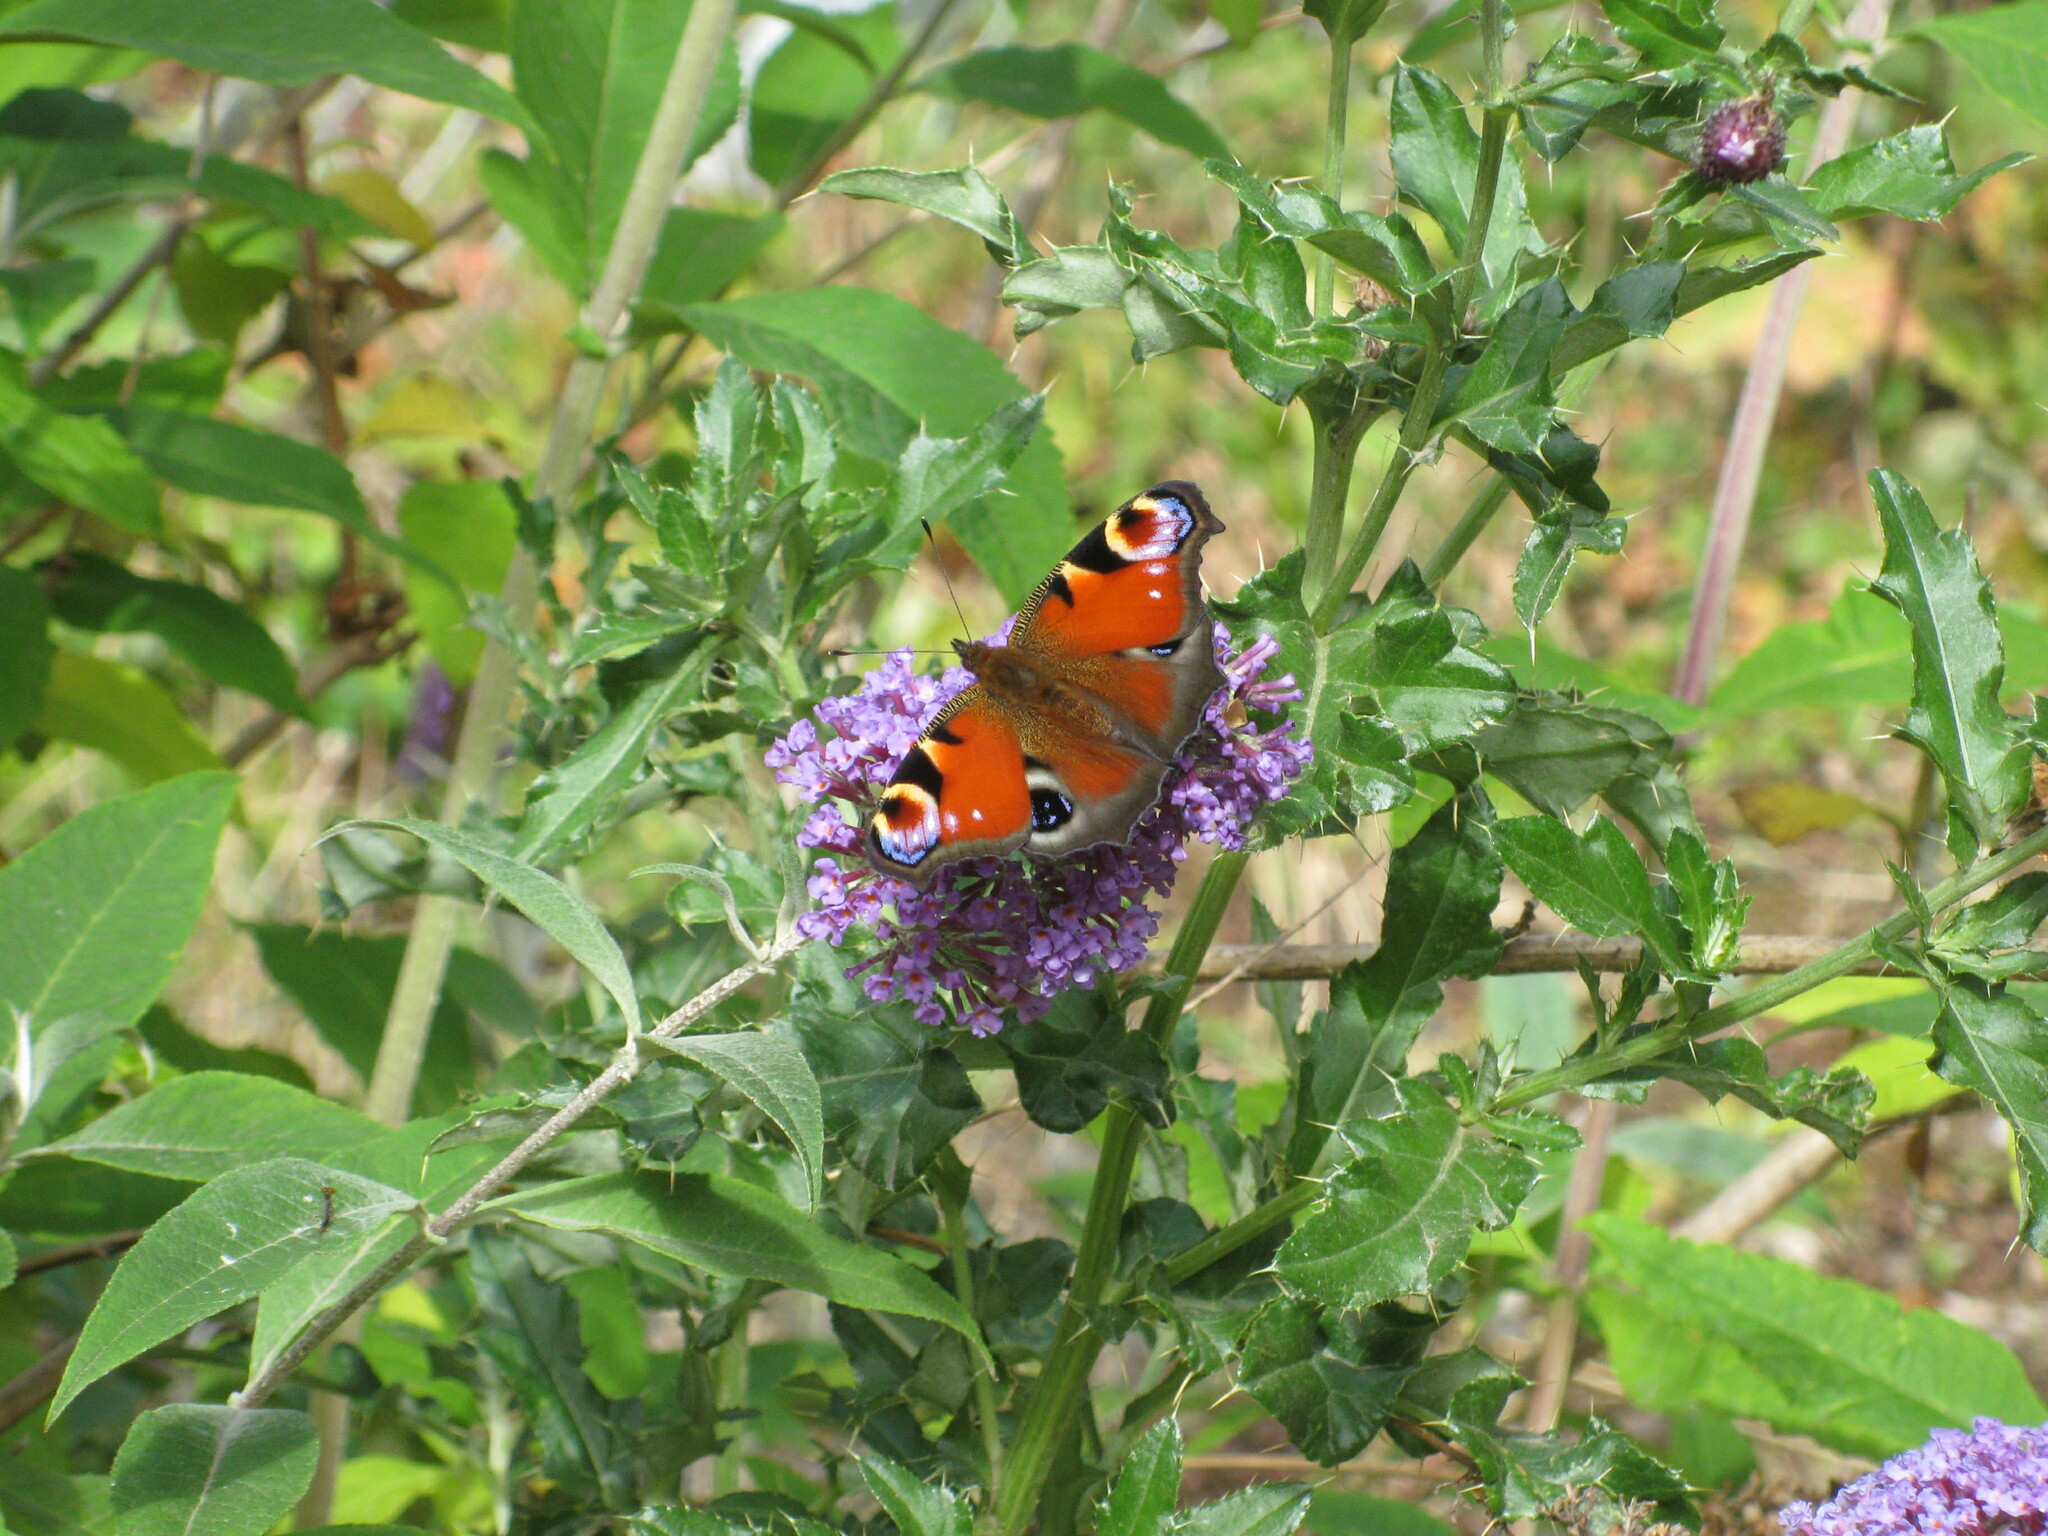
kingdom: Animalia
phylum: Arthropoda
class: Insecta
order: Lepidoptera
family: Nymphalidae
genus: Aglais
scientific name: Aglais io
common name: Peacock
